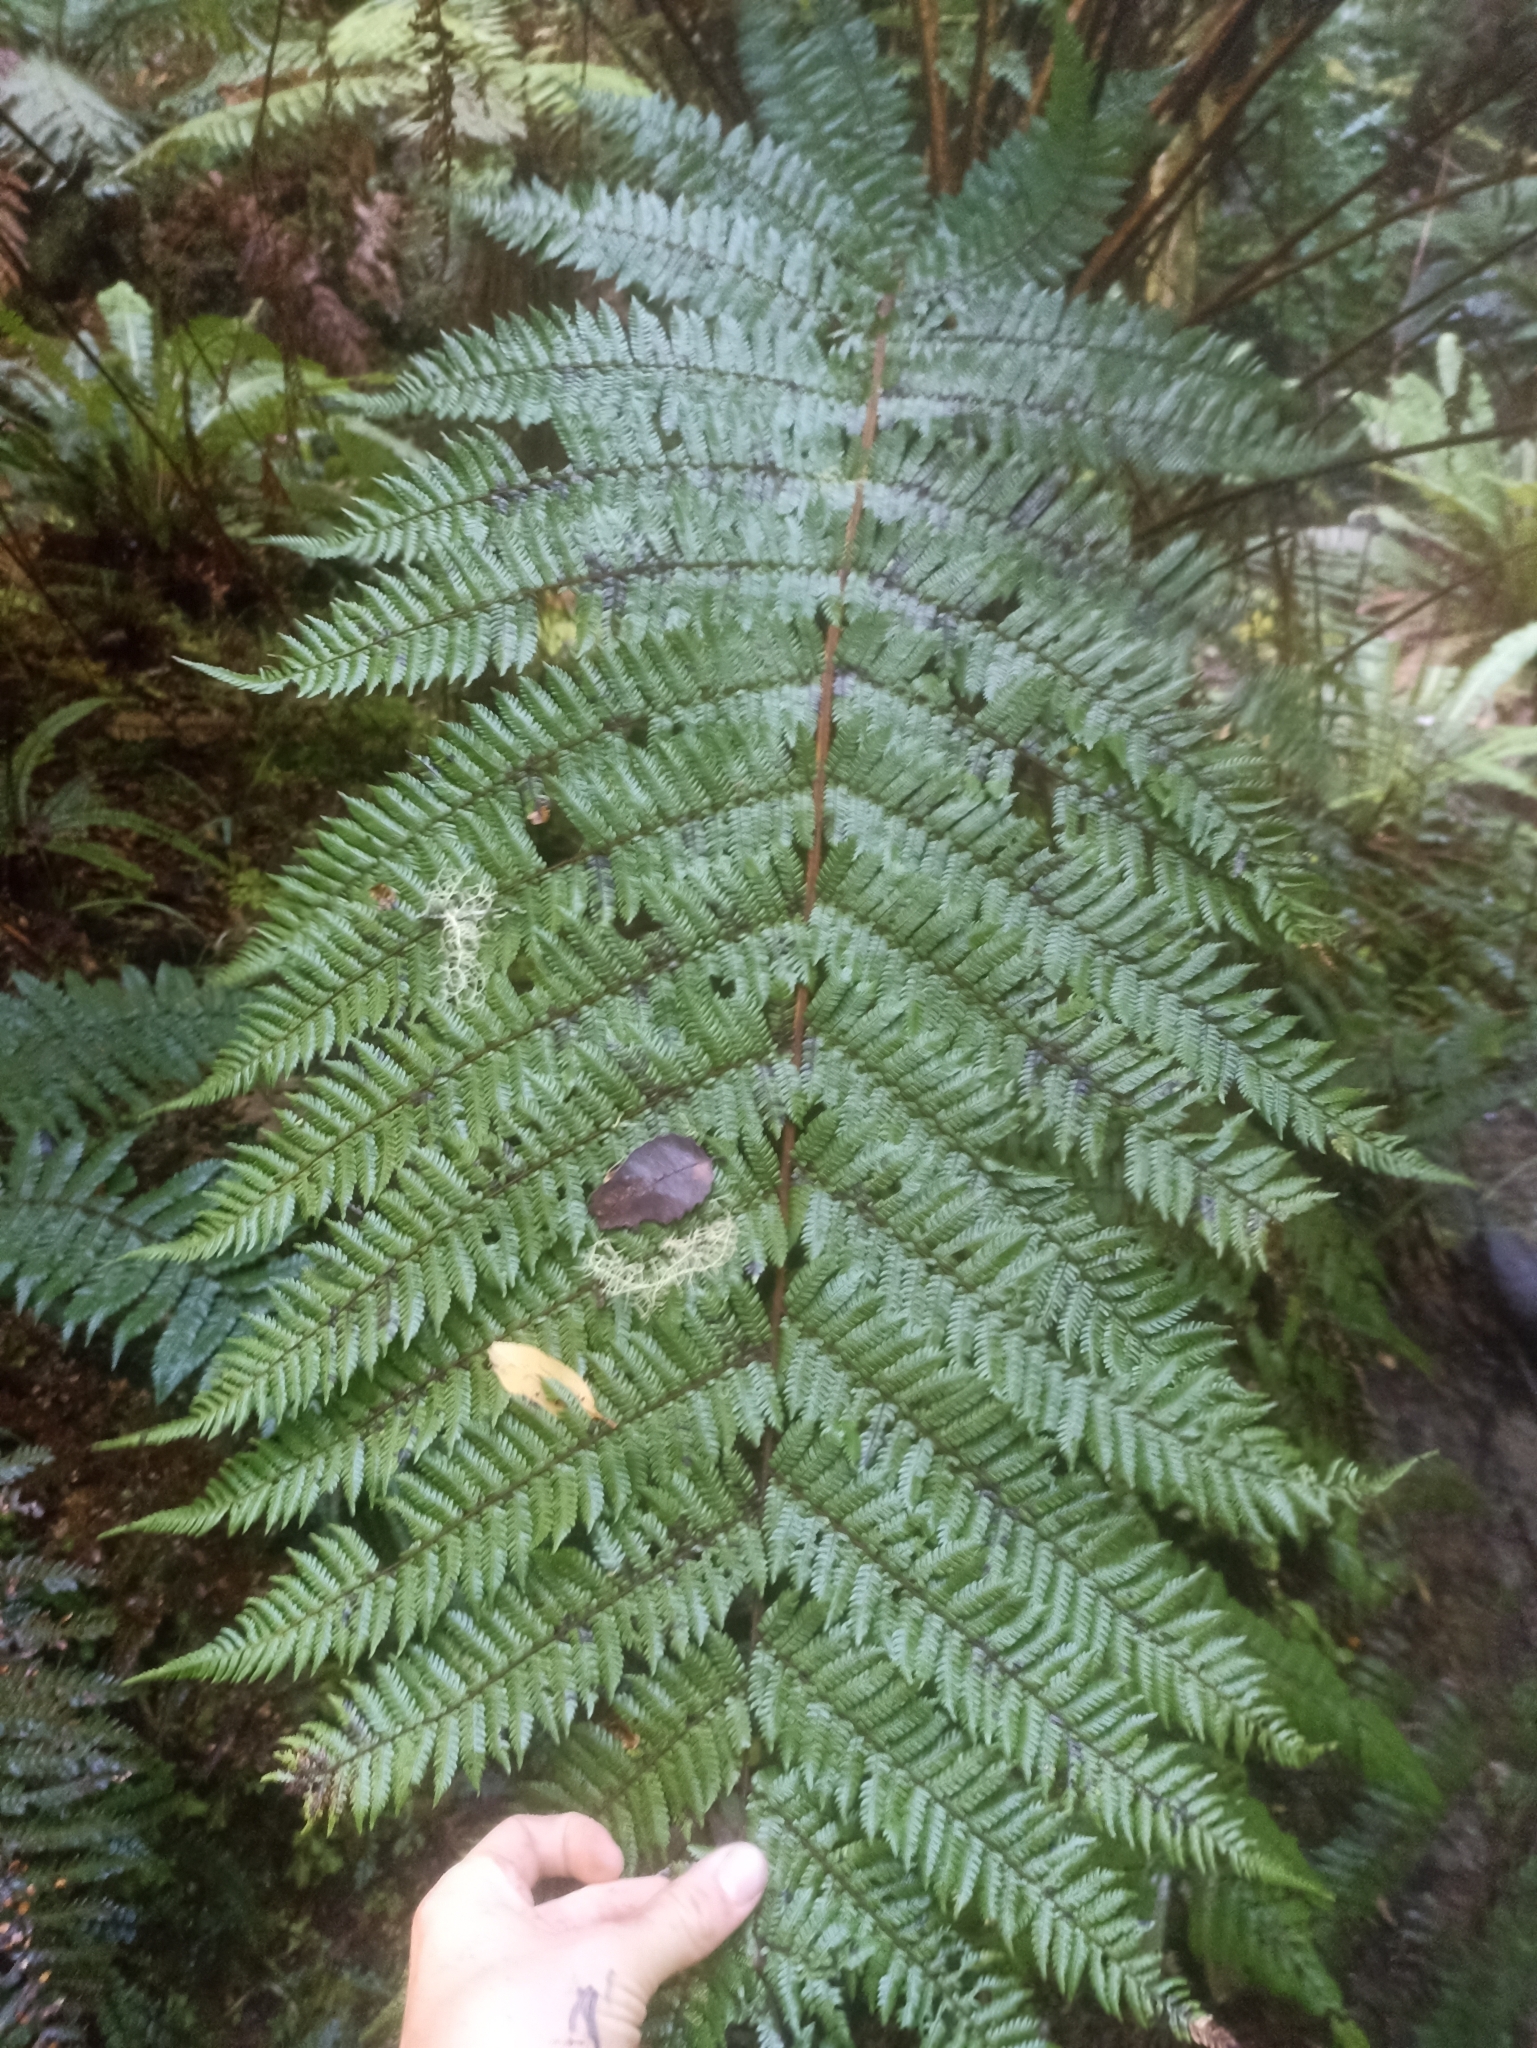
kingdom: Plantae
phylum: Tracheophyta
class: Polypodiopsida
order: Cyatheales
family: Cyatheaceae
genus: Alsophila
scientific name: Alsophila smithii
